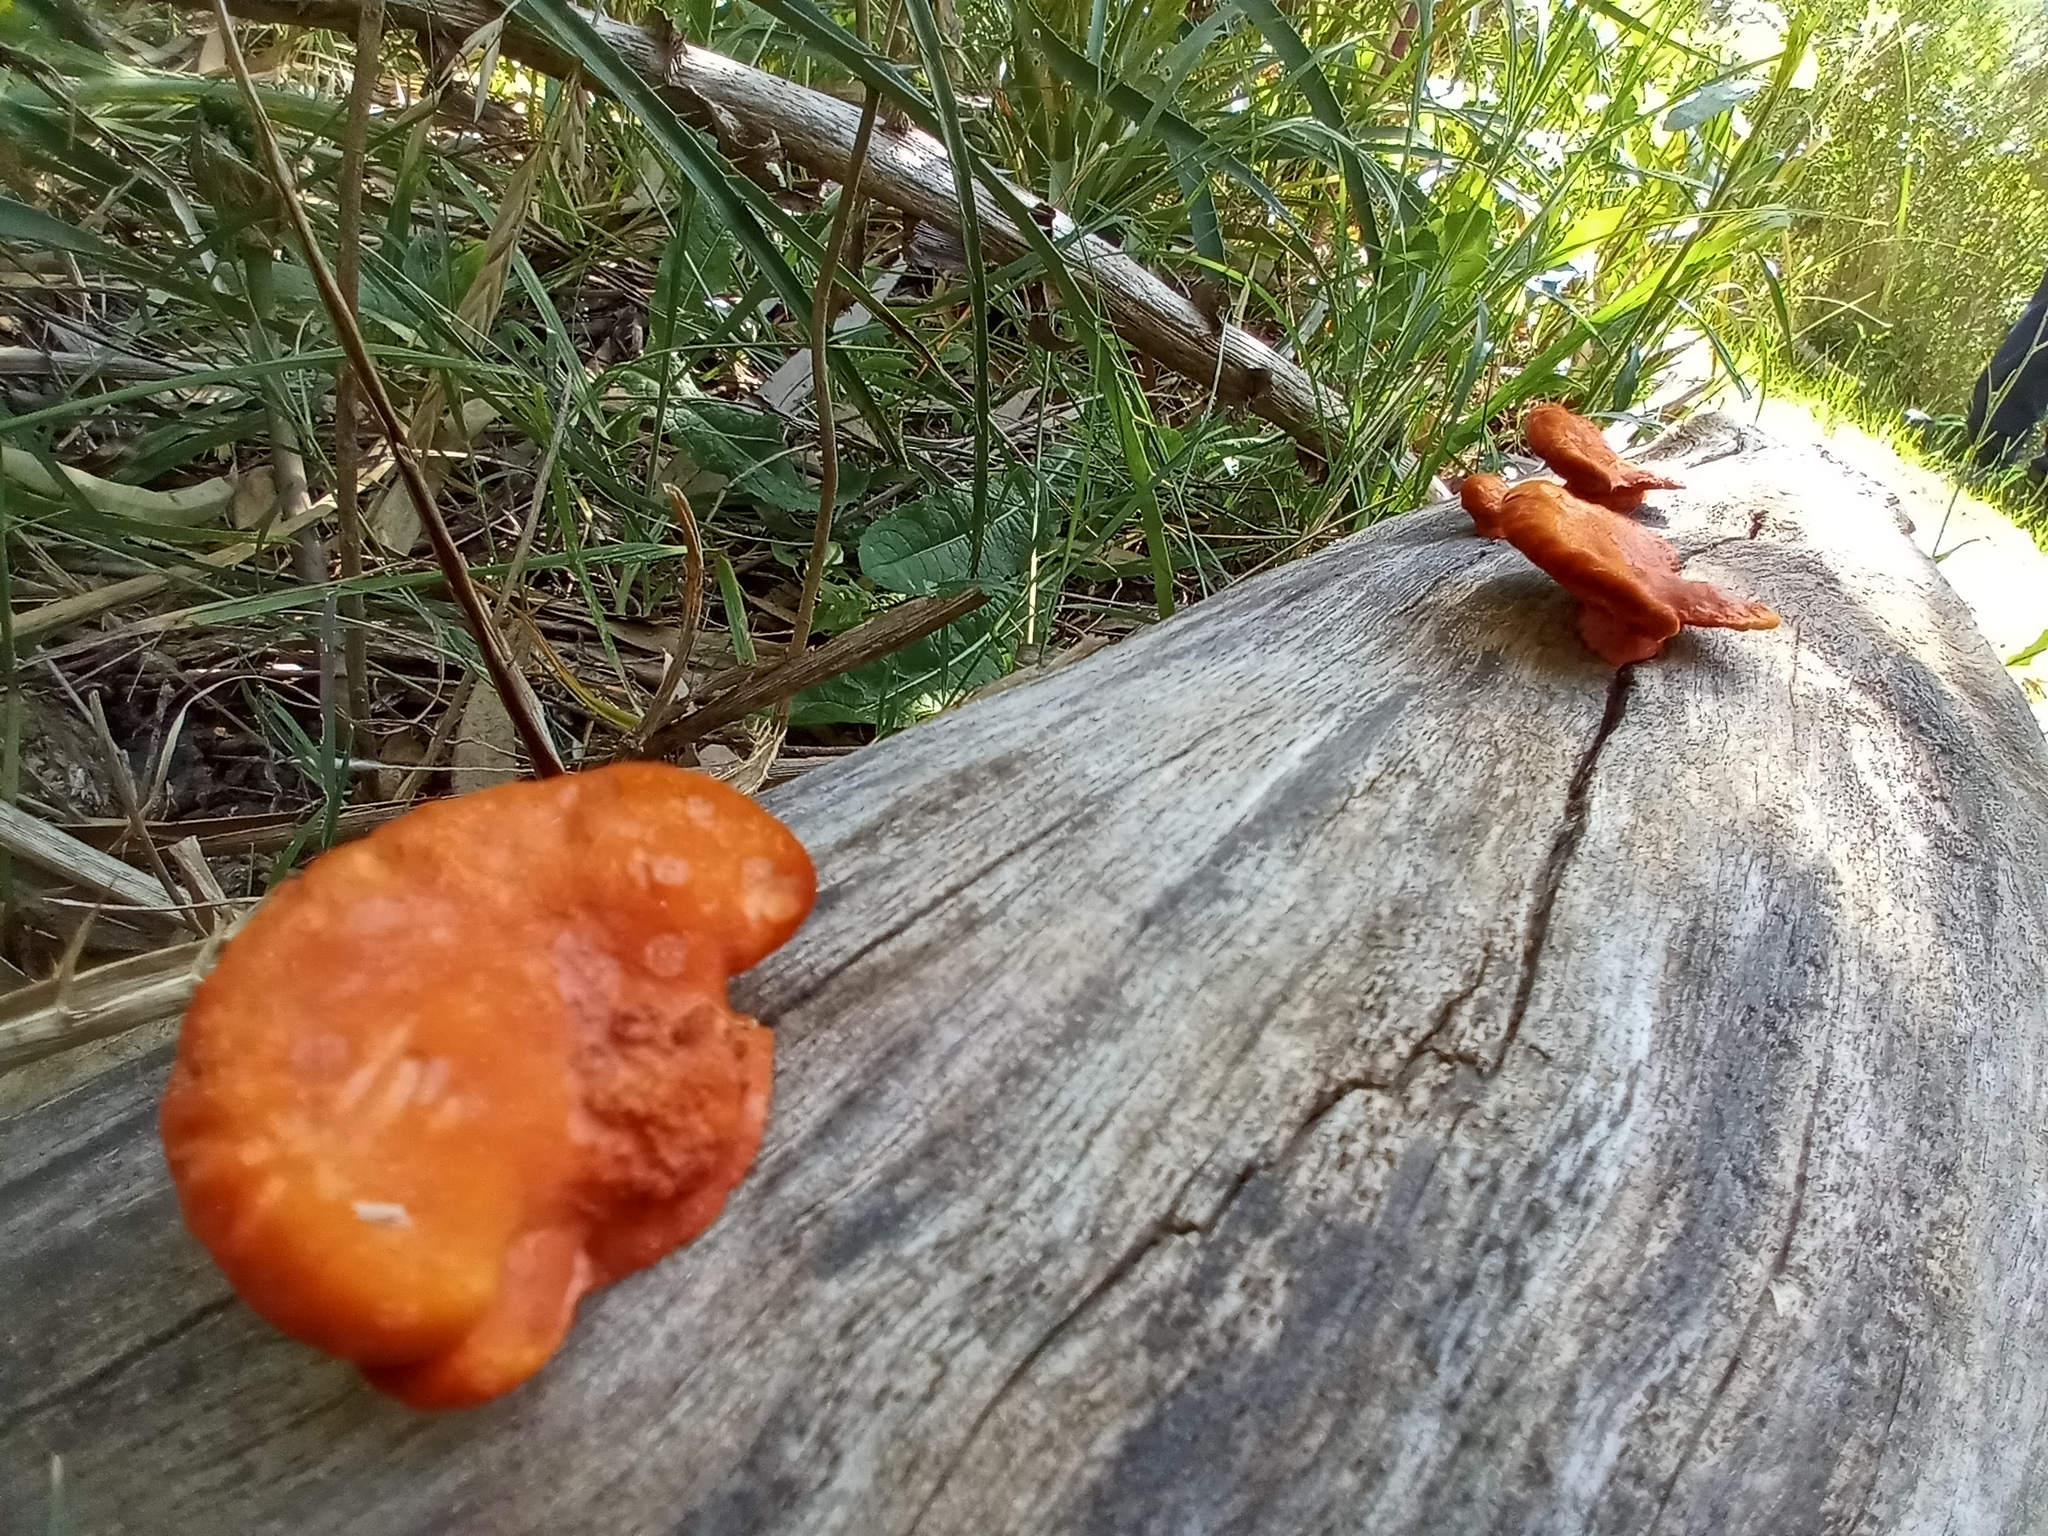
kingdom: Fungi
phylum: Basidiomycota
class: Agaricomycetes
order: Polyporales
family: Polyporaceae
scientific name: Polyporaceae
